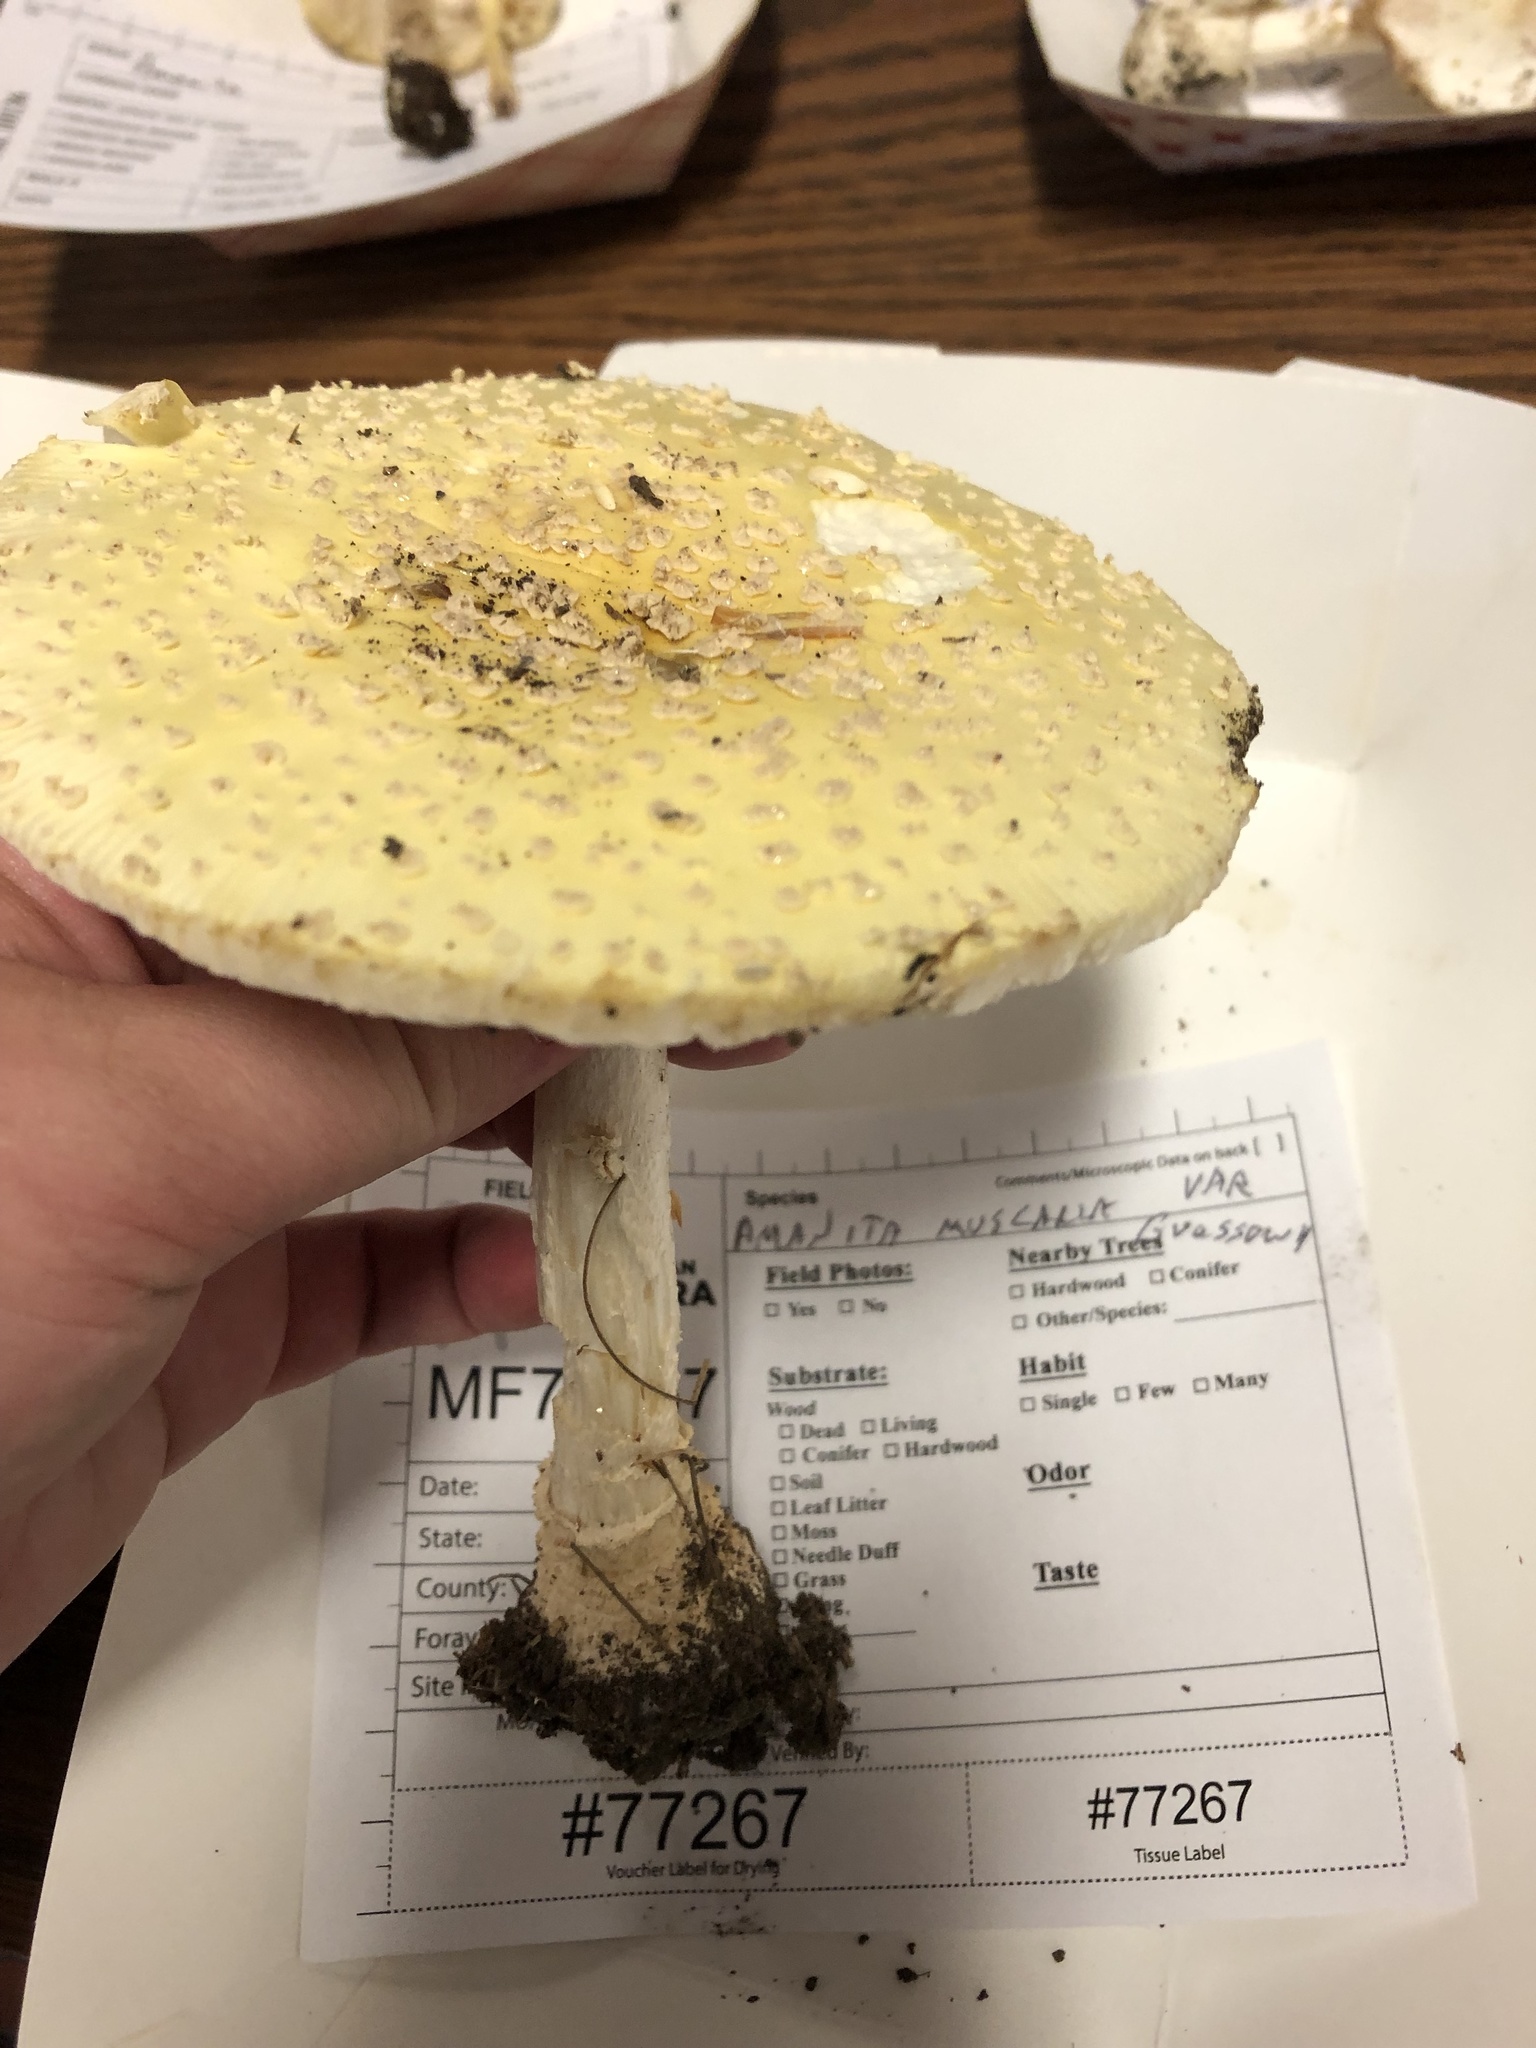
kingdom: Fungi
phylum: Basidiomycota
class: Agaricomycetes
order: Agaricales
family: Amanitaceae
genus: Amanita
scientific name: Amanita muscaria
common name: Fly agaric
